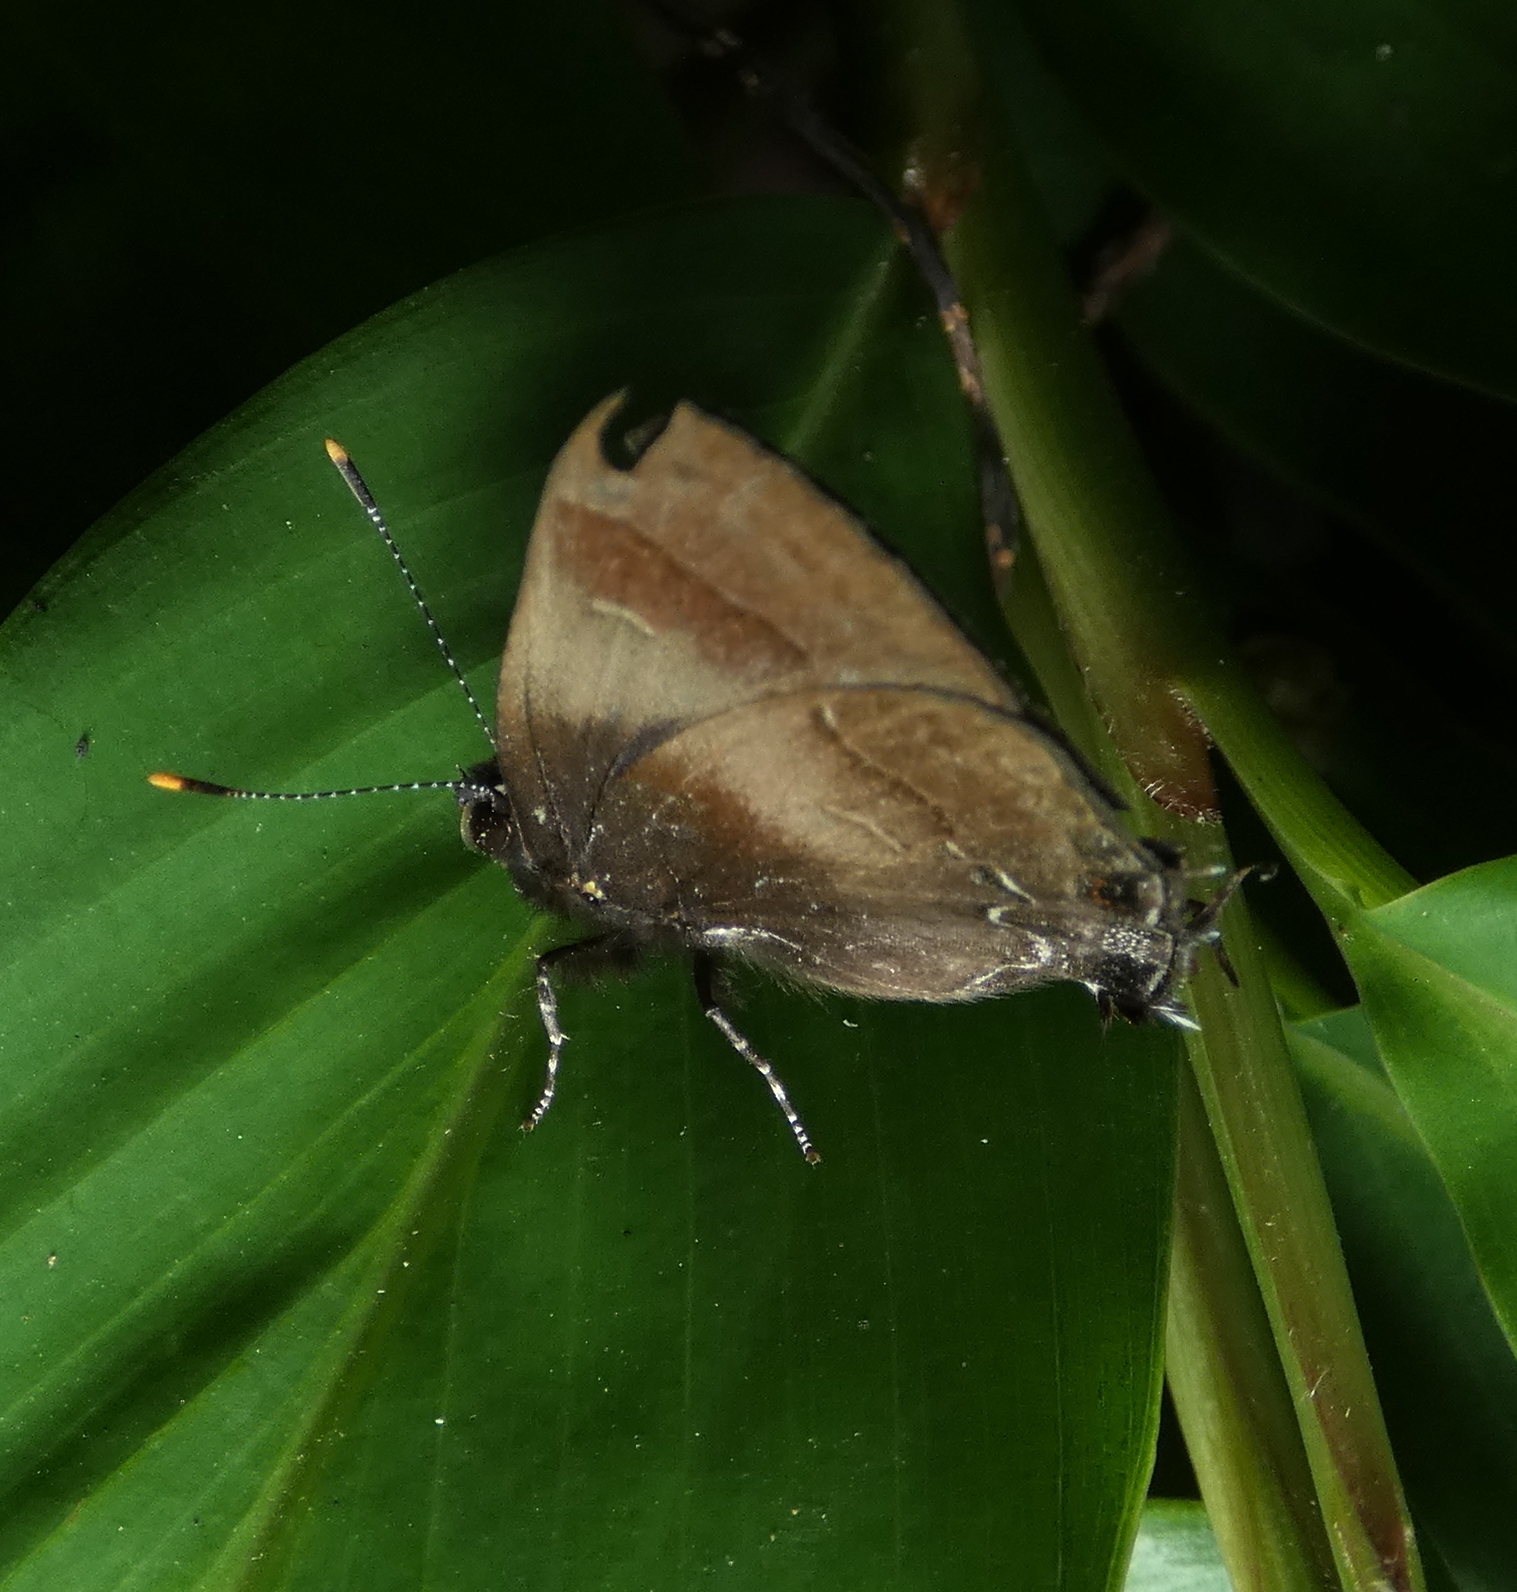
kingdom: Animalia
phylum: Arthropoda
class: Insecta
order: Lepidoptera
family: Lycaenidae
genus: Thecla
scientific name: Thecla orcidia
